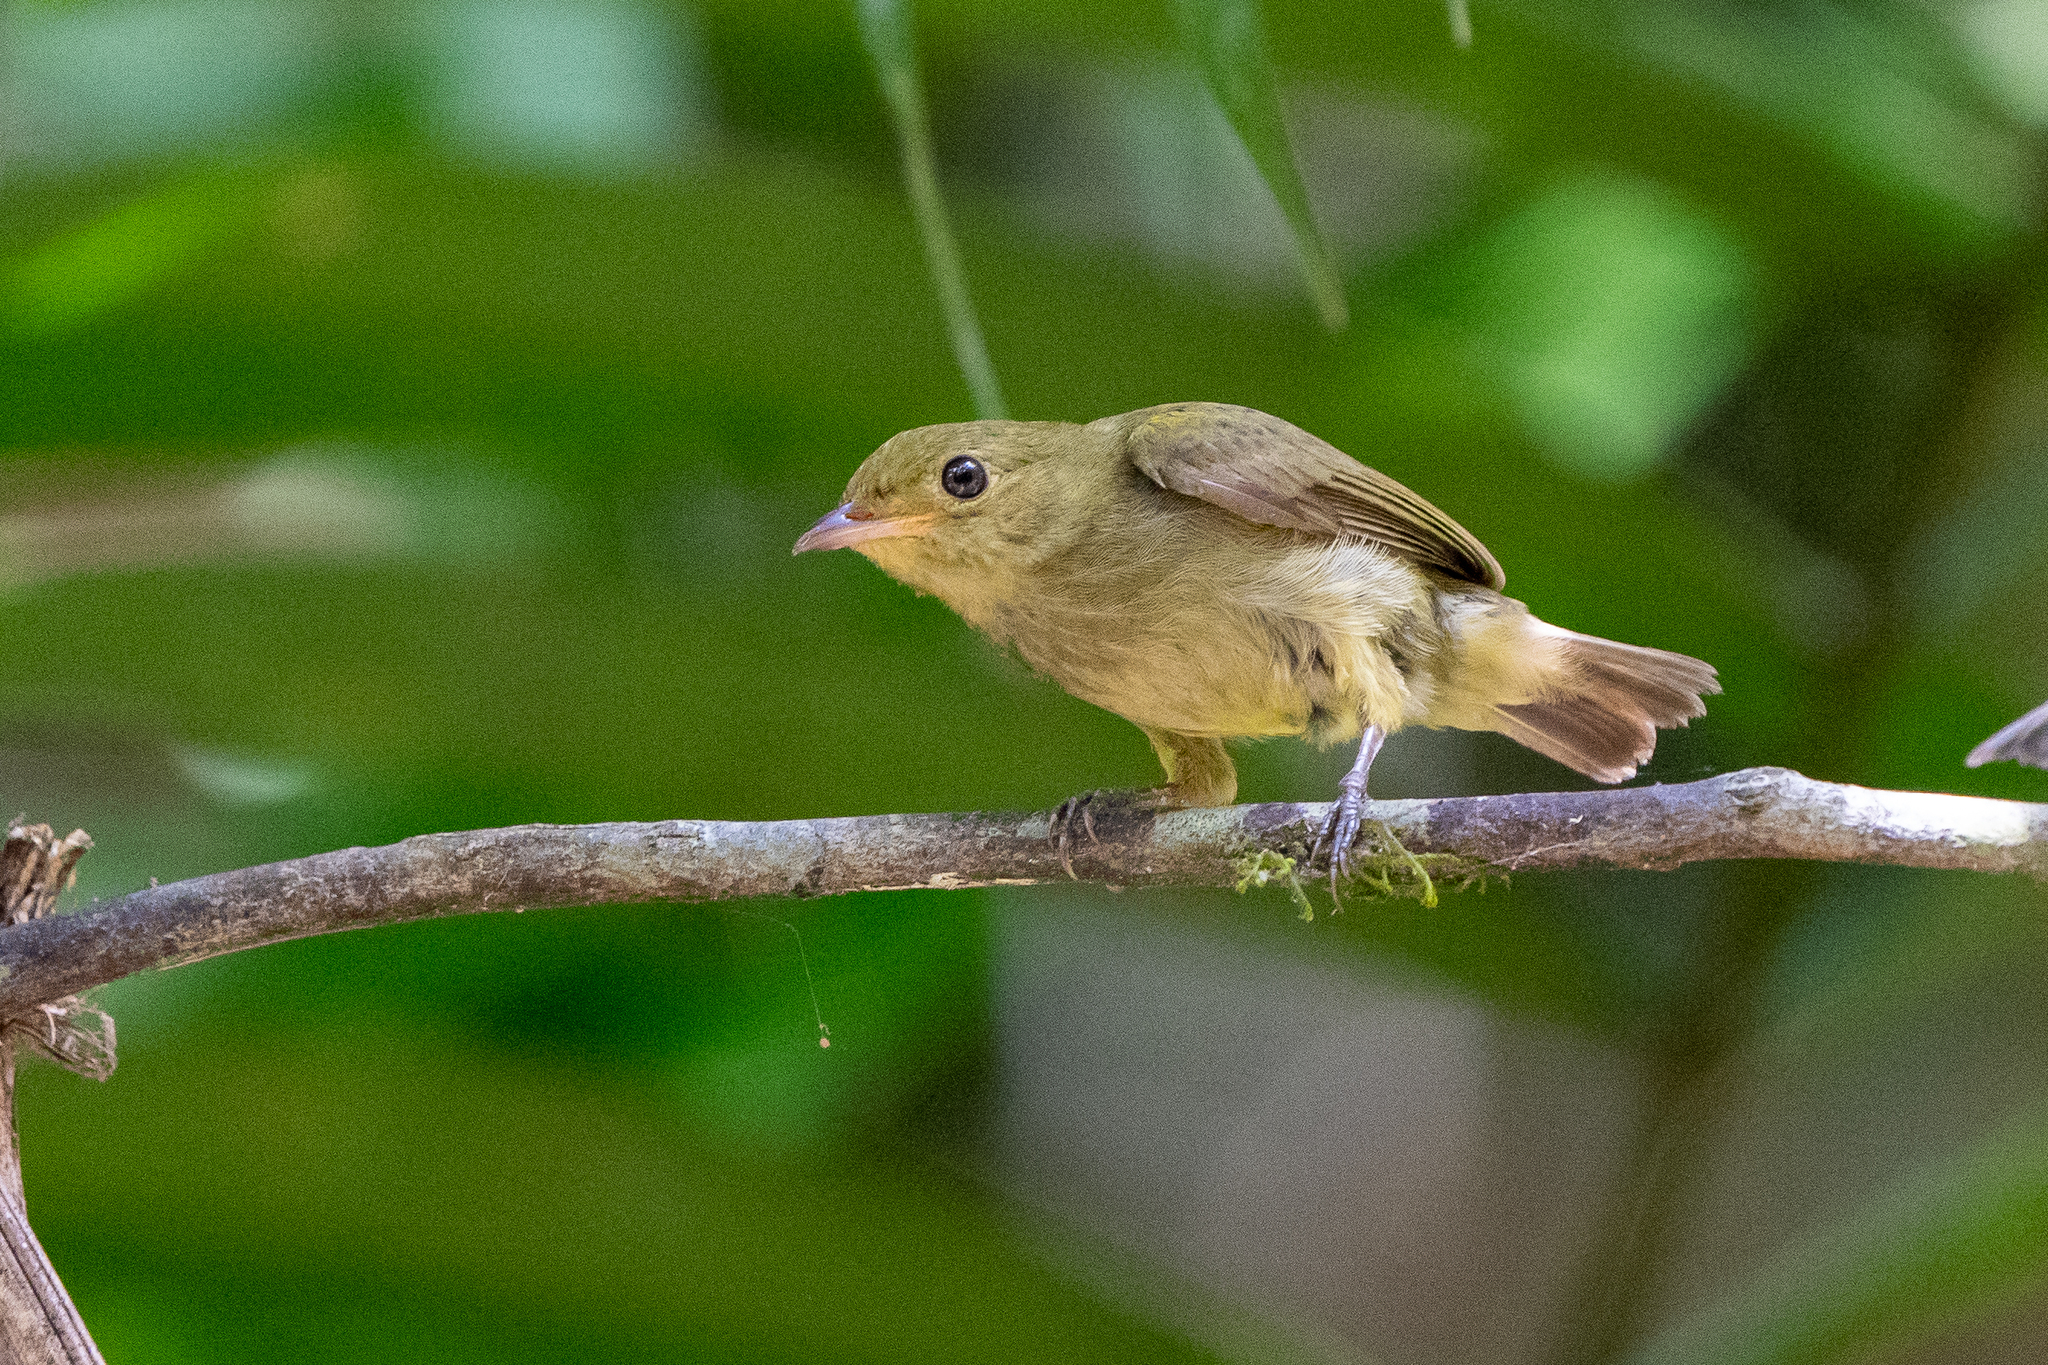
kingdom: Animalia
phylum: Chordata
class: Aves
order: Passeriformes
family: Pipridae
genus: Pipra
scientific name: Pipra mentalis
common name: Red-capped manakin
